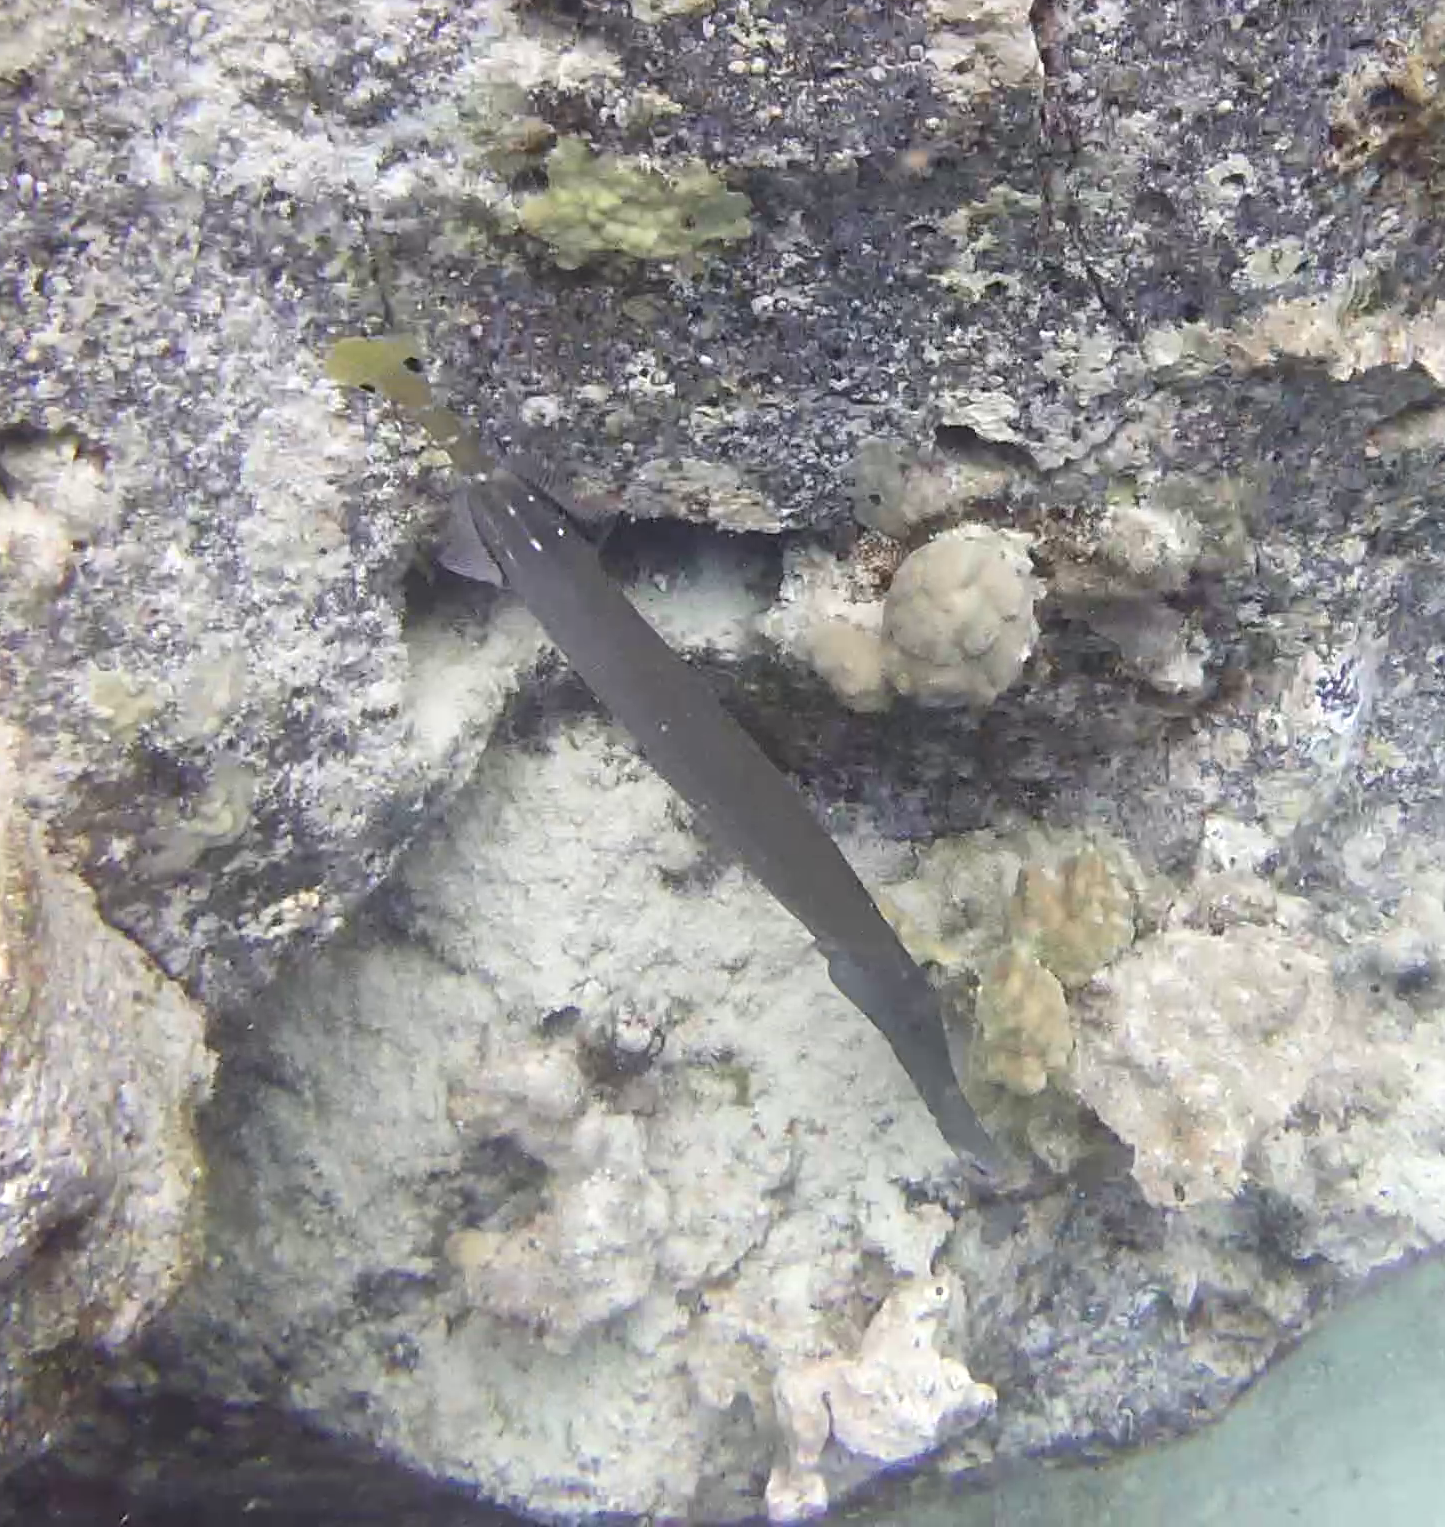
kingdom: Animalia
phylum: Chordata
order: Syngnathiformes
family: Aulostomidae
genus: Aulostomus
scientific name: Aulostomus chinensis
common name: Chinese trumpetfish
